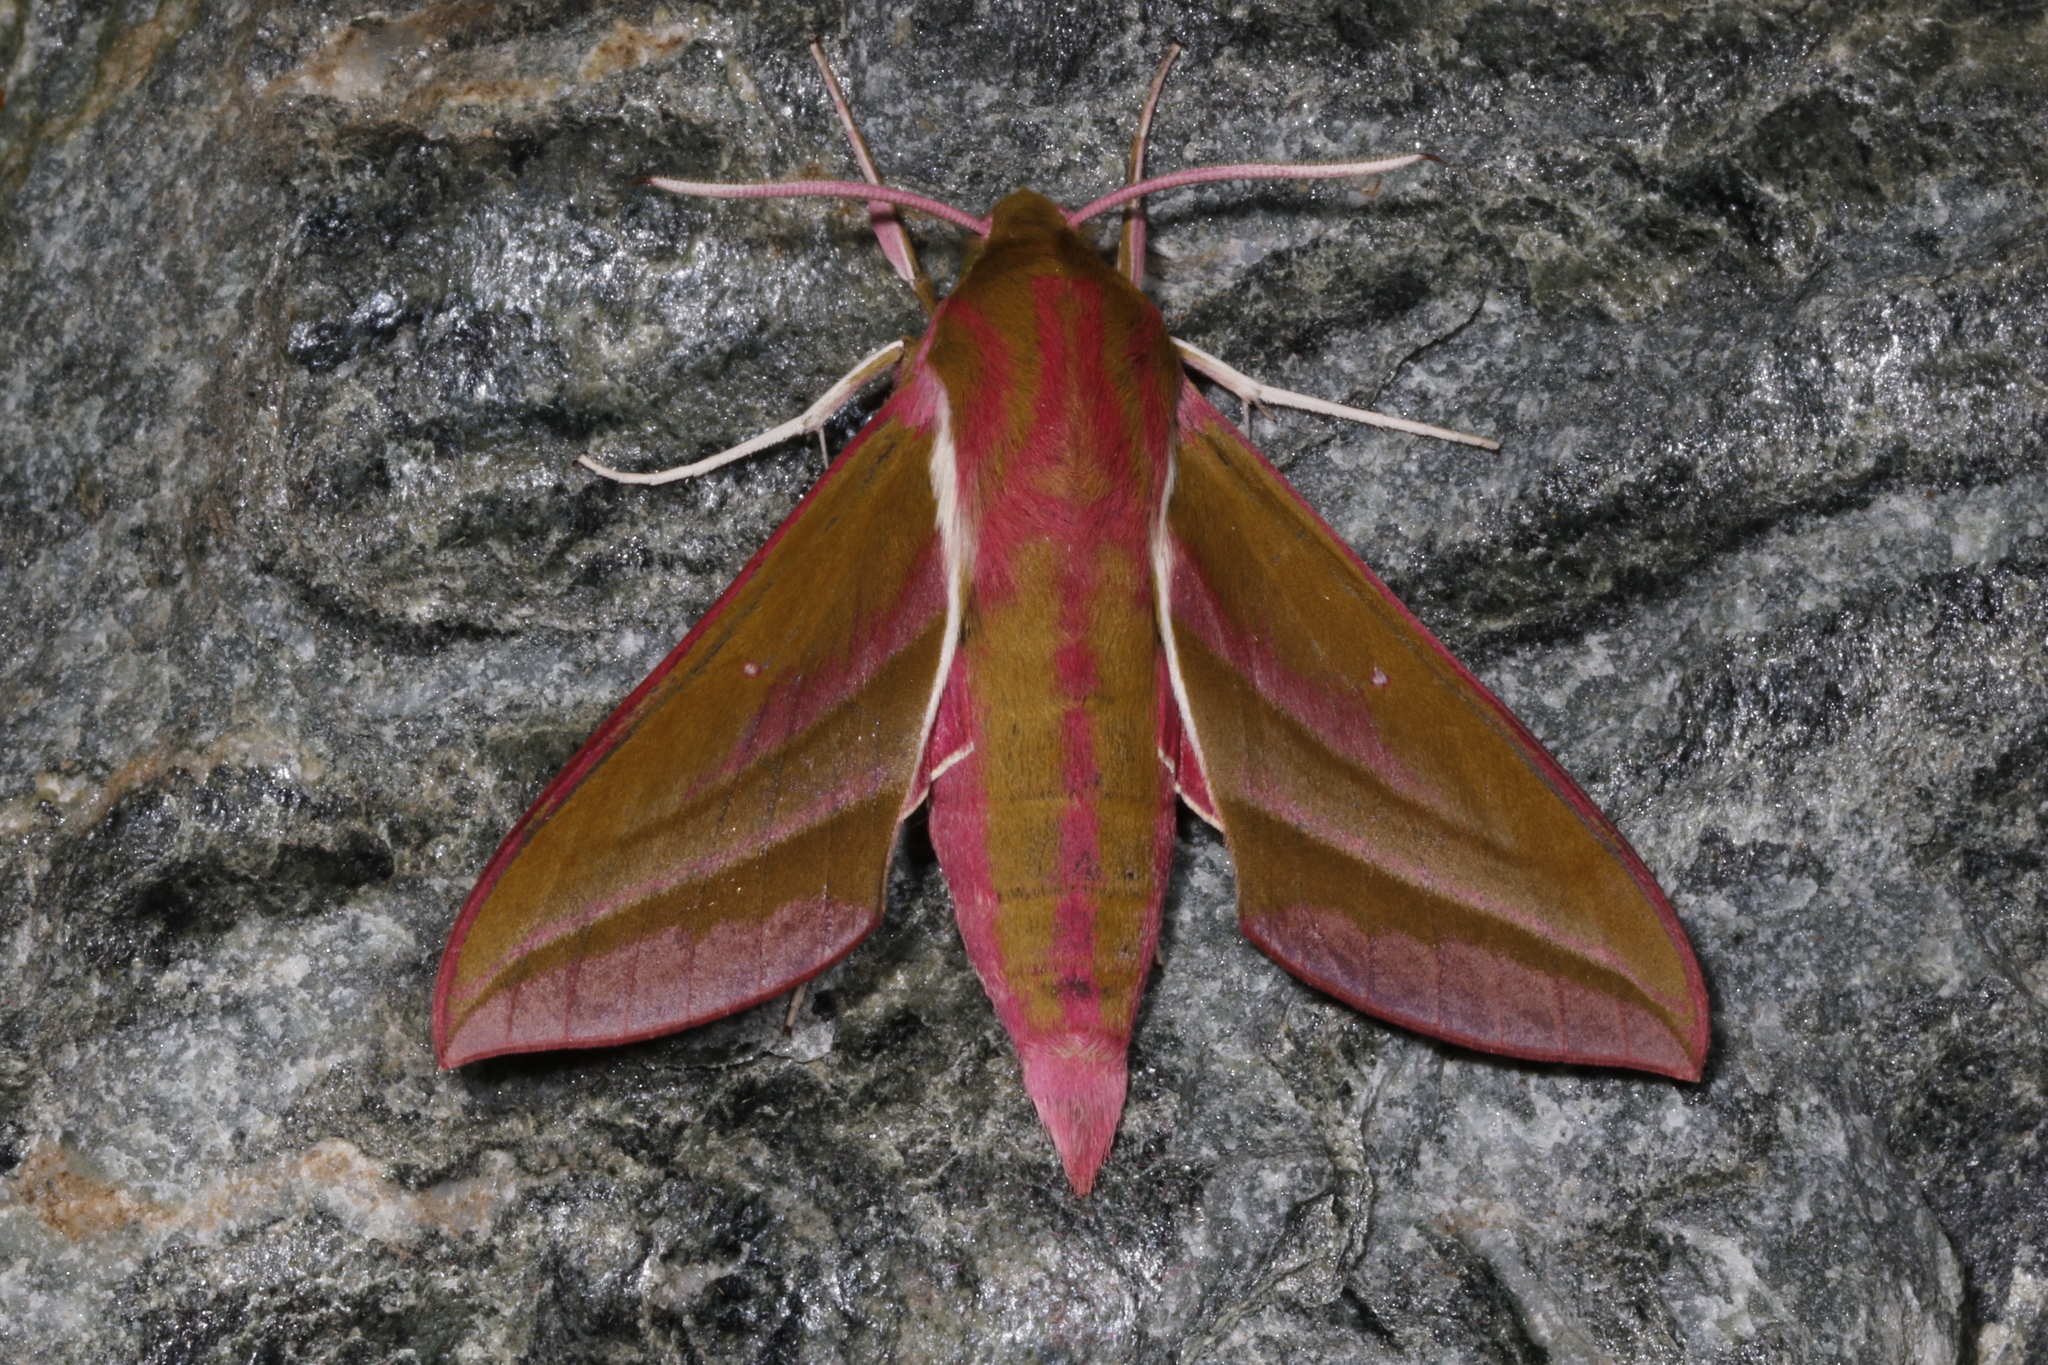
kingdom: Animalia
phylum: Arthropoda
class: Insecta
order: Lepidoptera
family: Sphingidae
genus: Deilephila
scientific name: Deilephila elpenor
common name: Elephant hawk-moth
